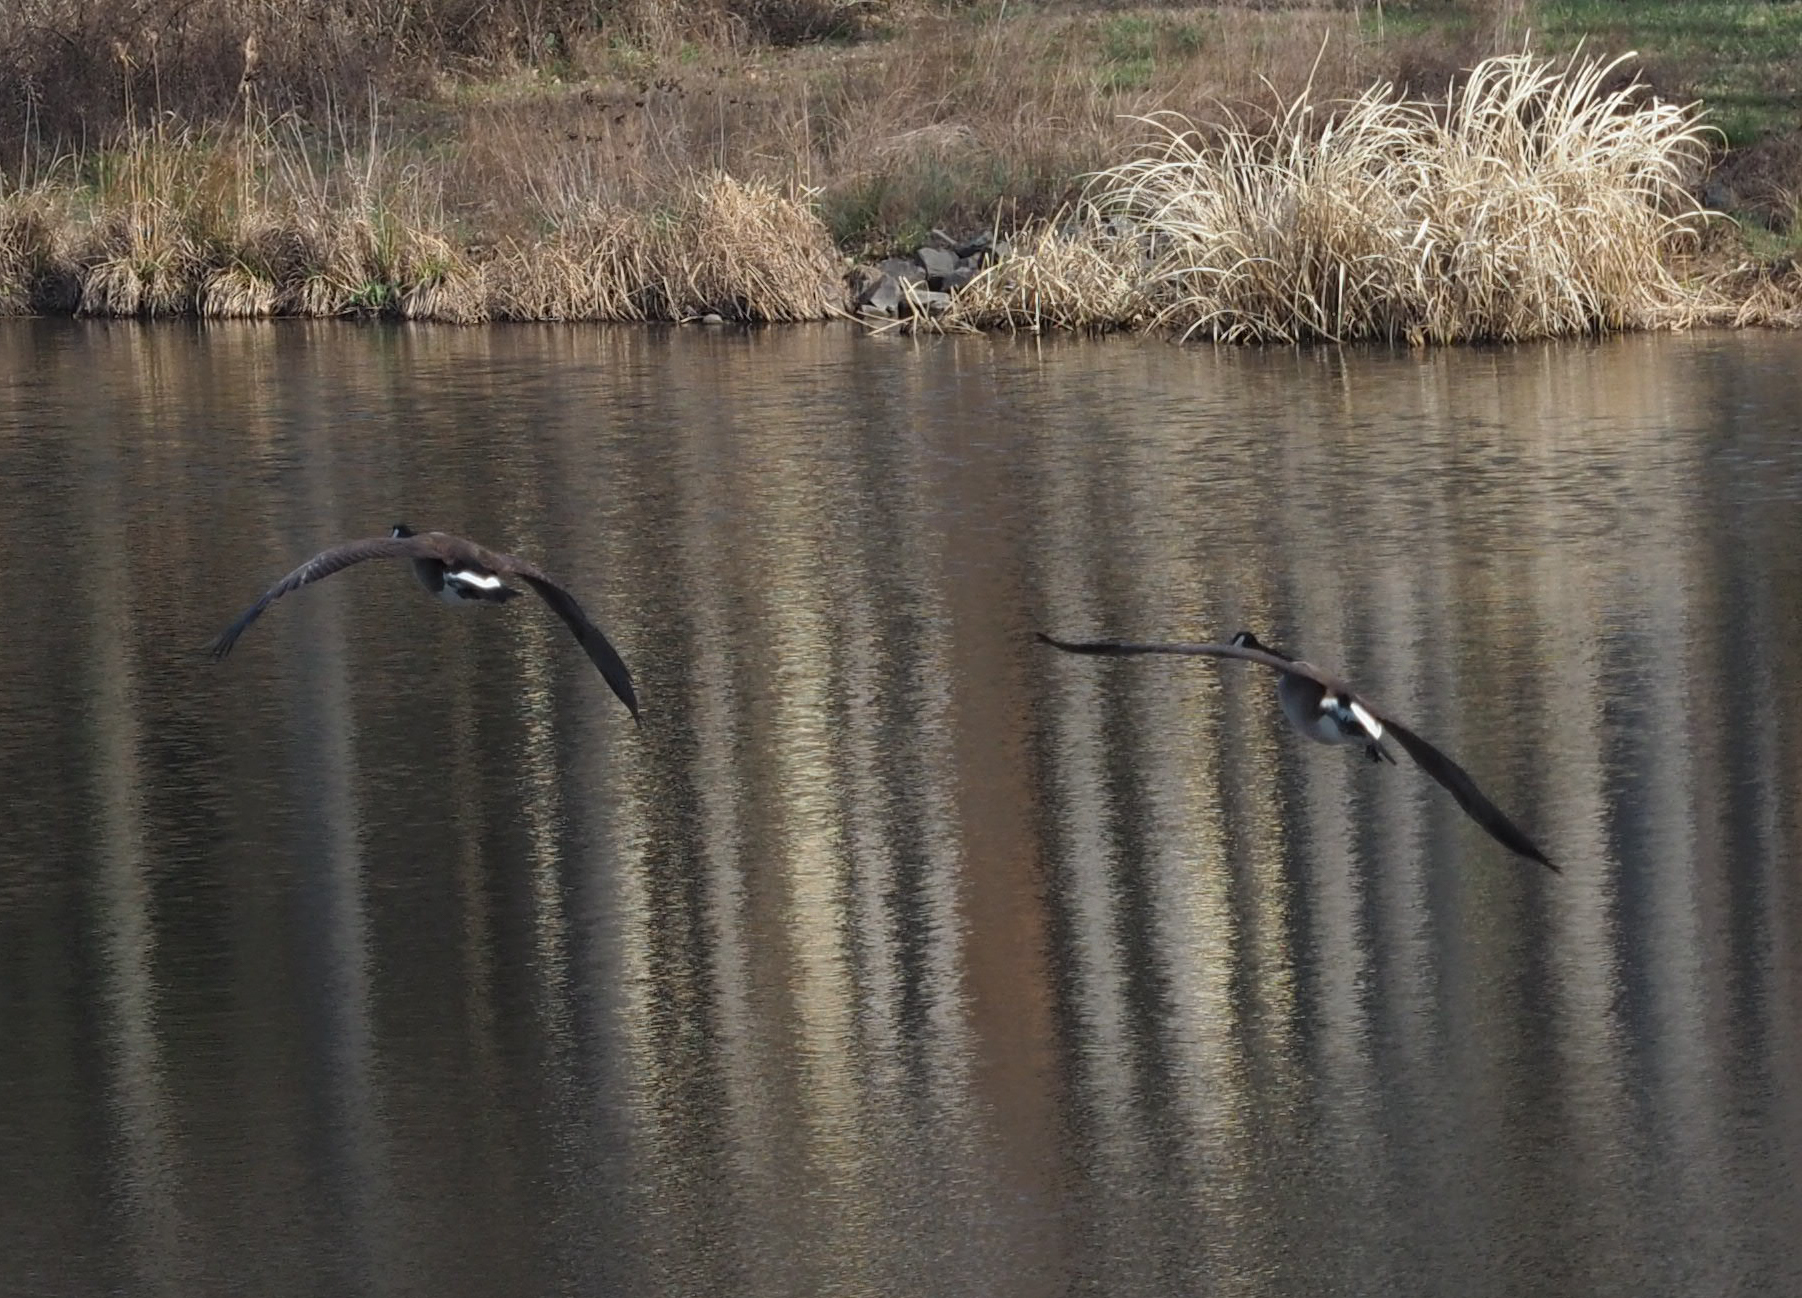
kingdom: Animalia
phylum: Chordata
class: Aves
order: Anseriformes
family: Anatidae
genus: Branta
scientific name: Branta canadensis
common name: Canada goose
